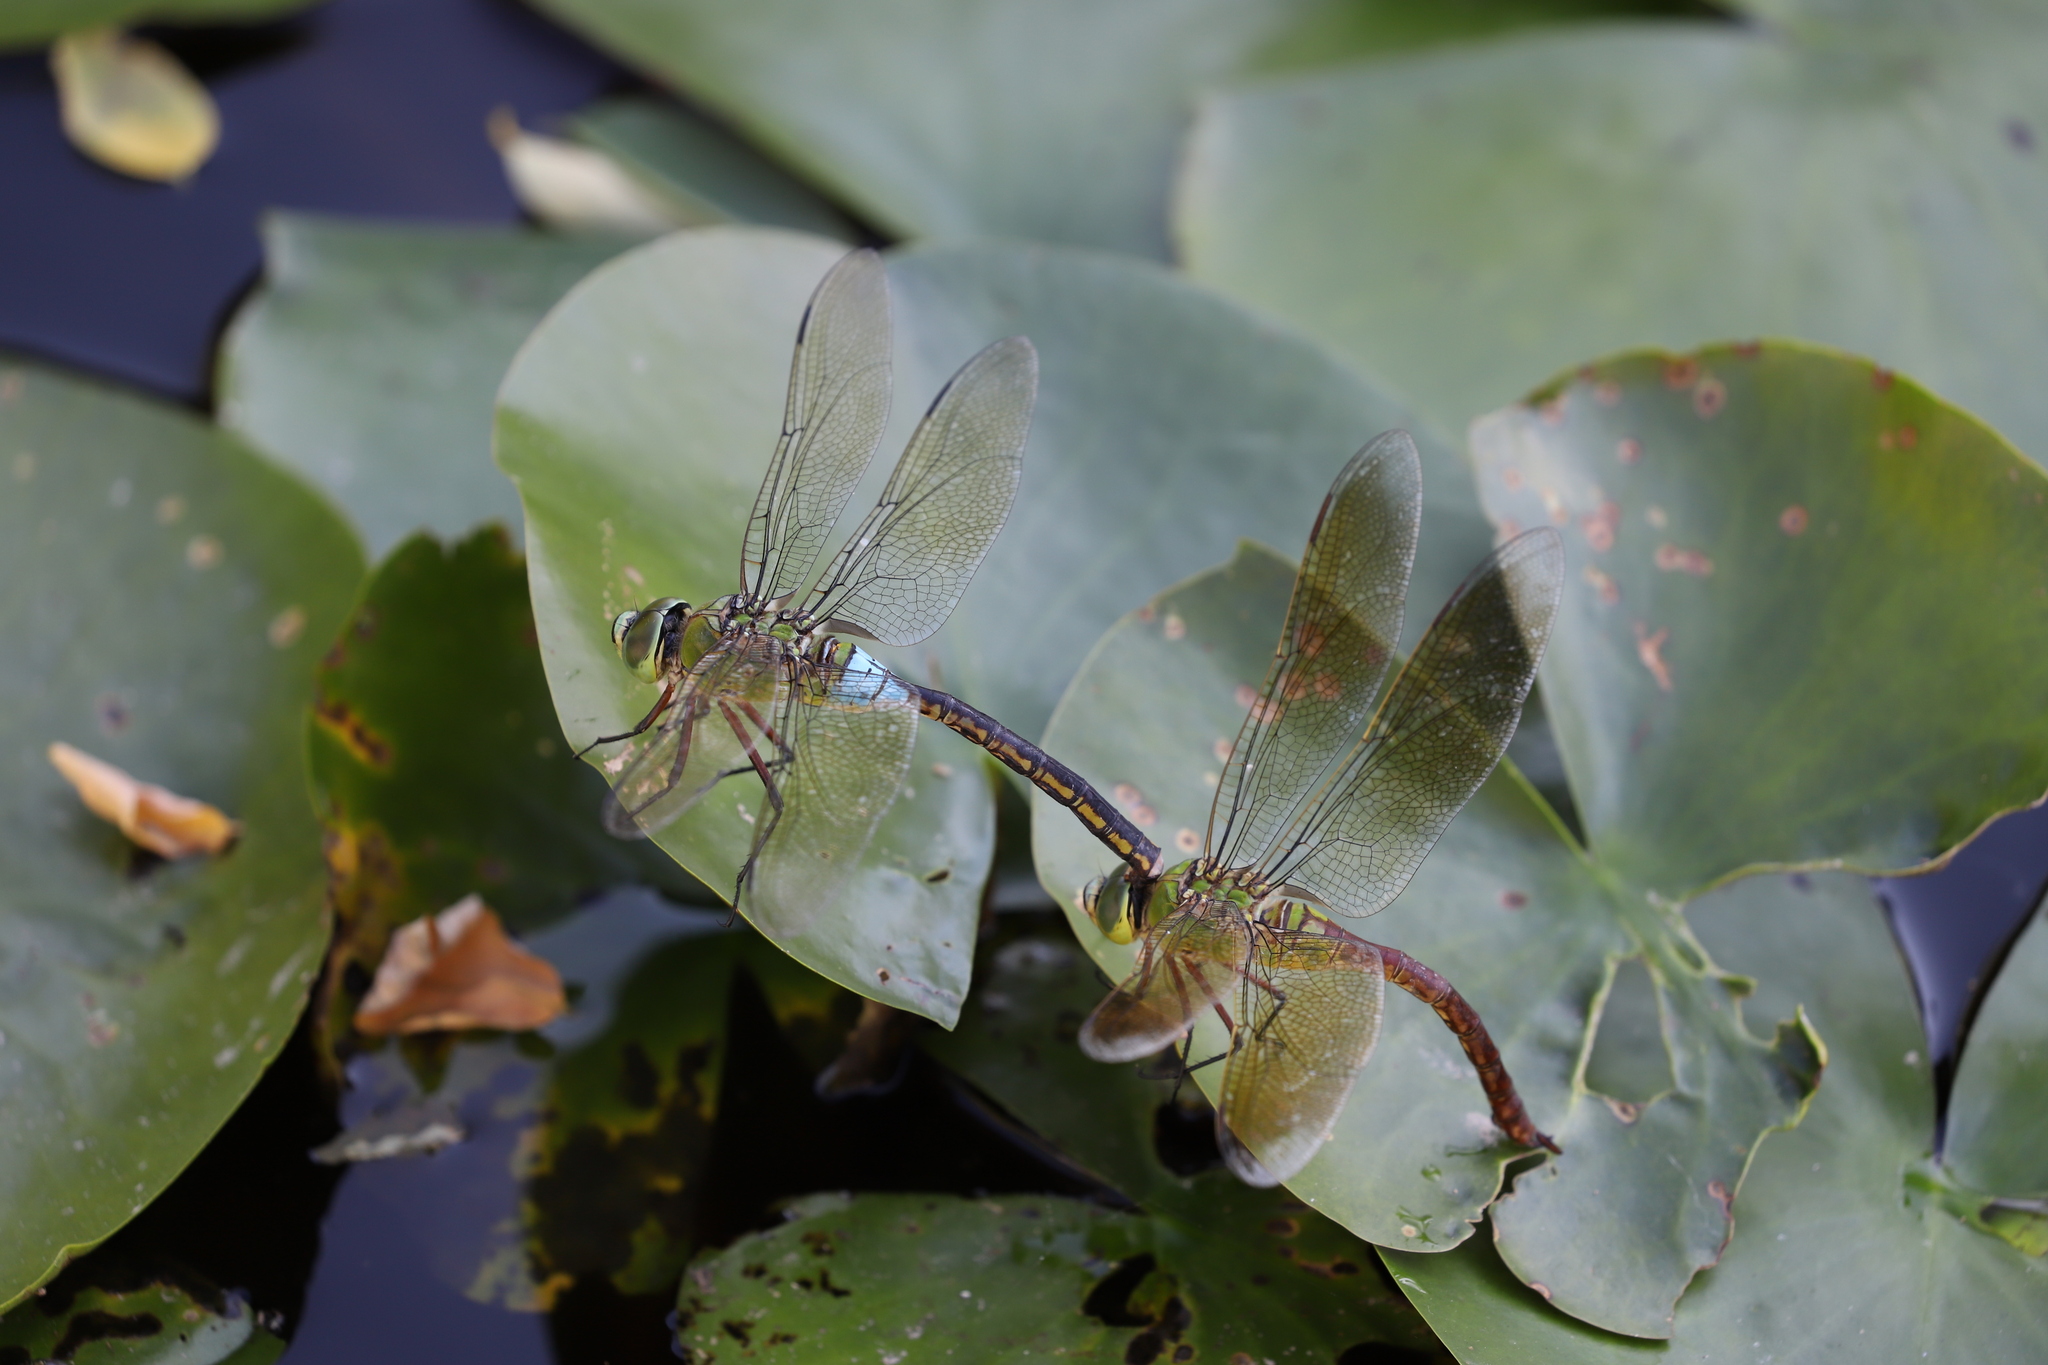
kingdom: Animalia
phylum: Arthropoda
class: Insecta
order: Odonata
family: Aeshnidae
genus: Anax
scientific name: Anax julius
